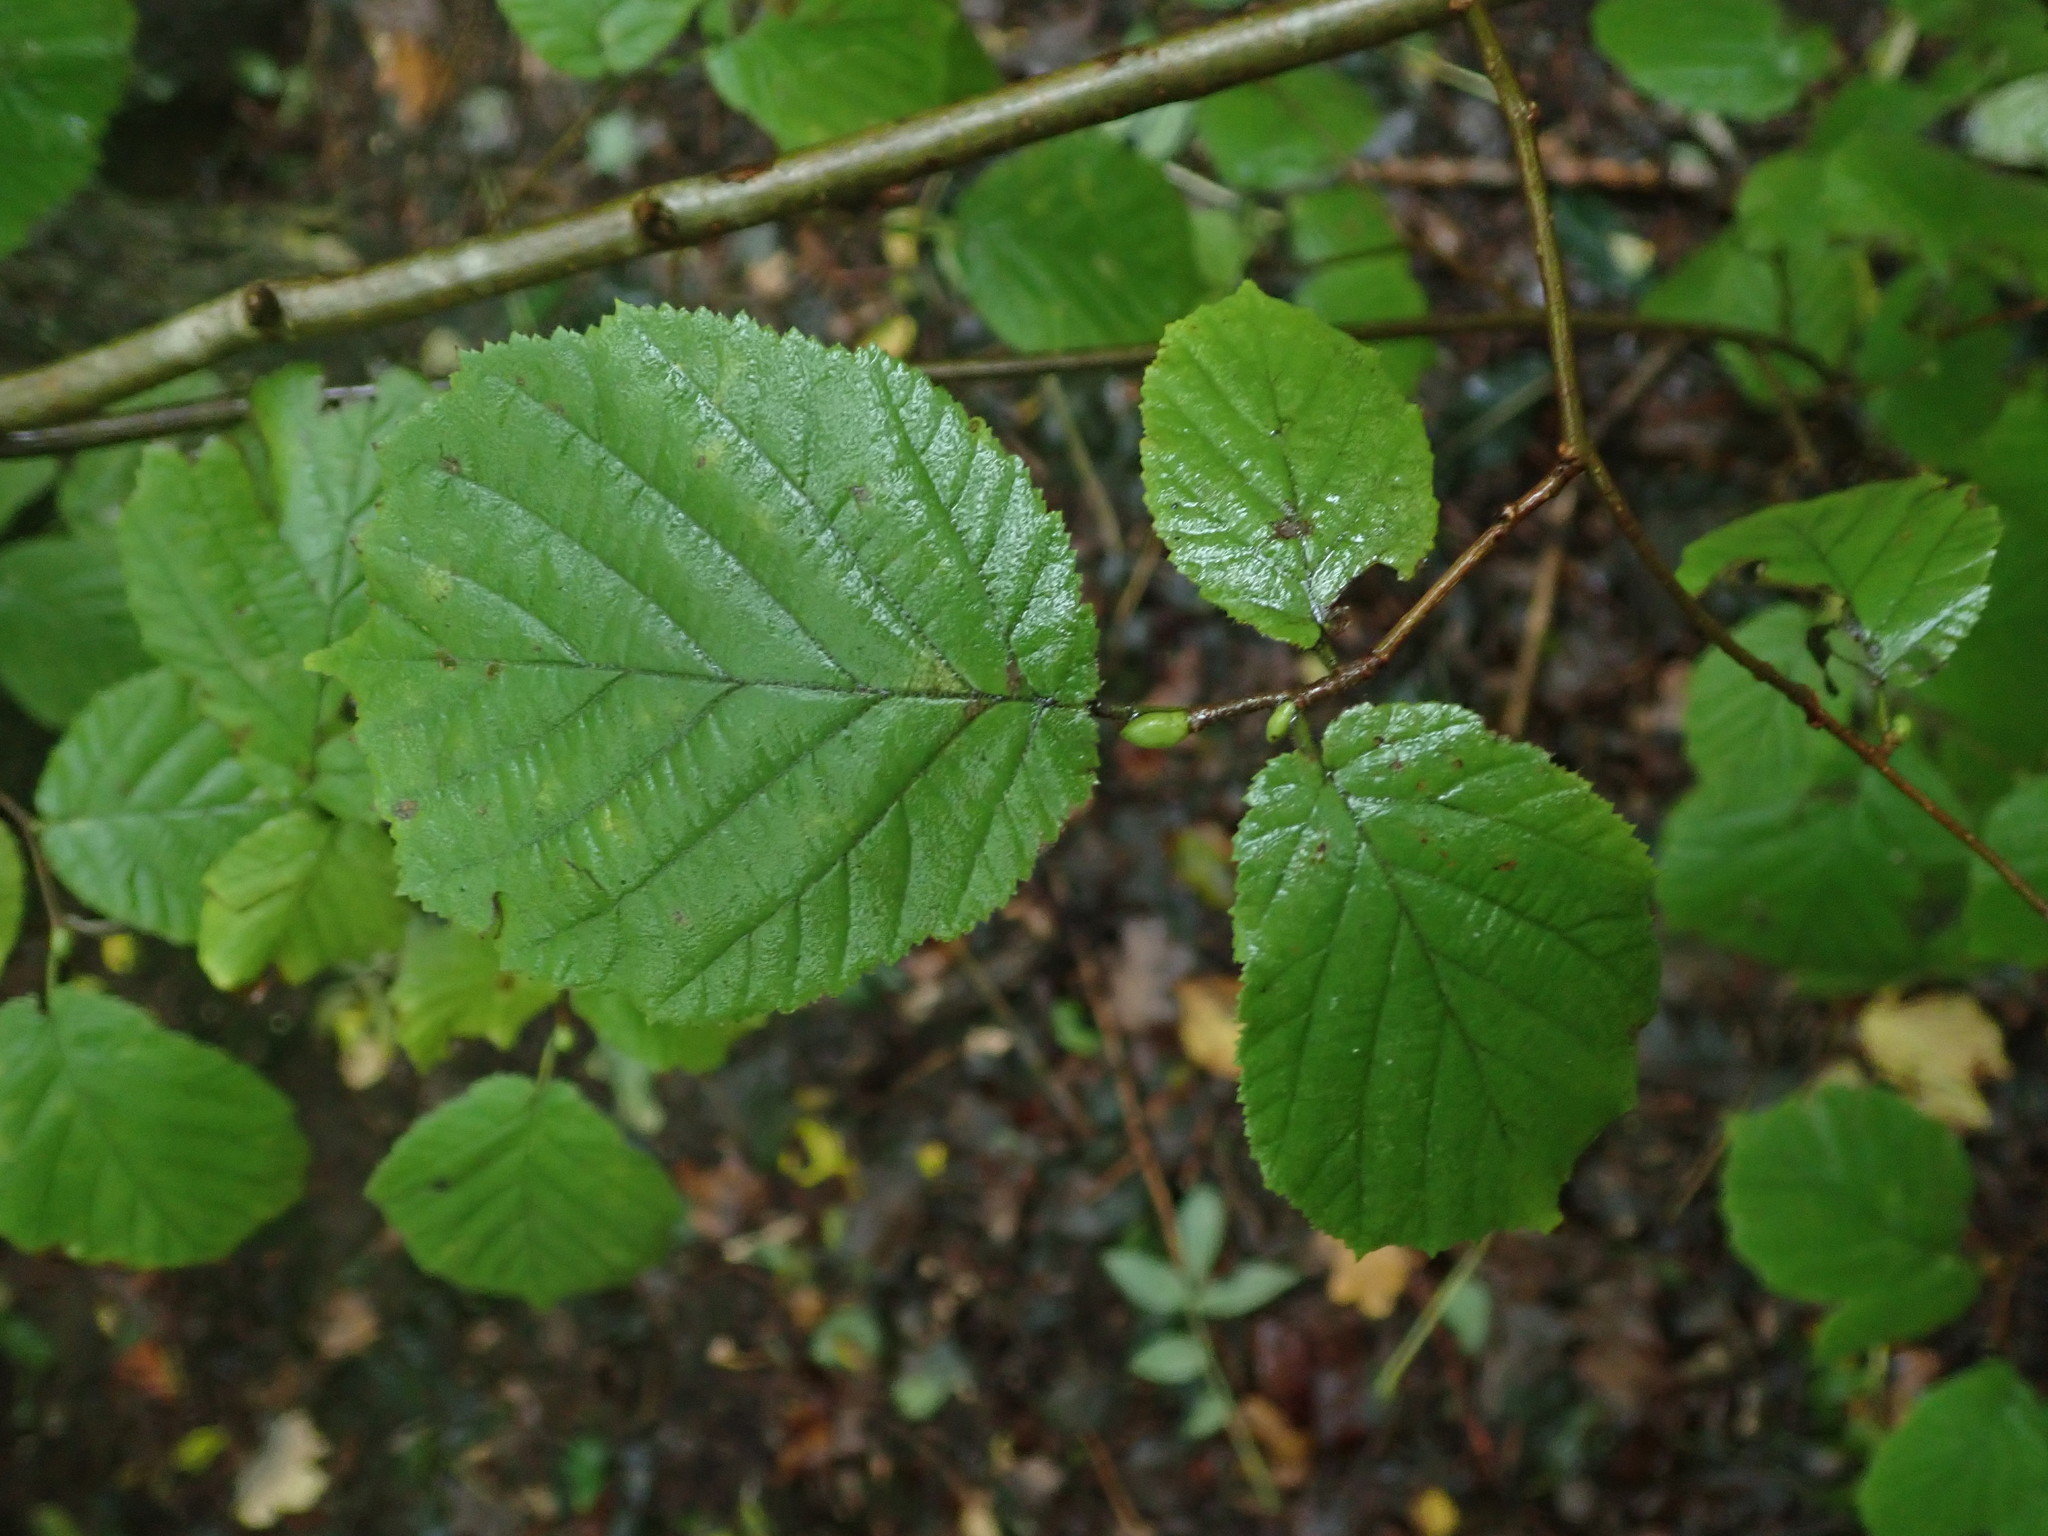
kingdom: Plantae
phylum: Tracheophyta
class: Magnoliopsida
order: Fagales
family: Betulaceae
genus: Corylus
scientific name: Corylus avellana
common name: European hazel
